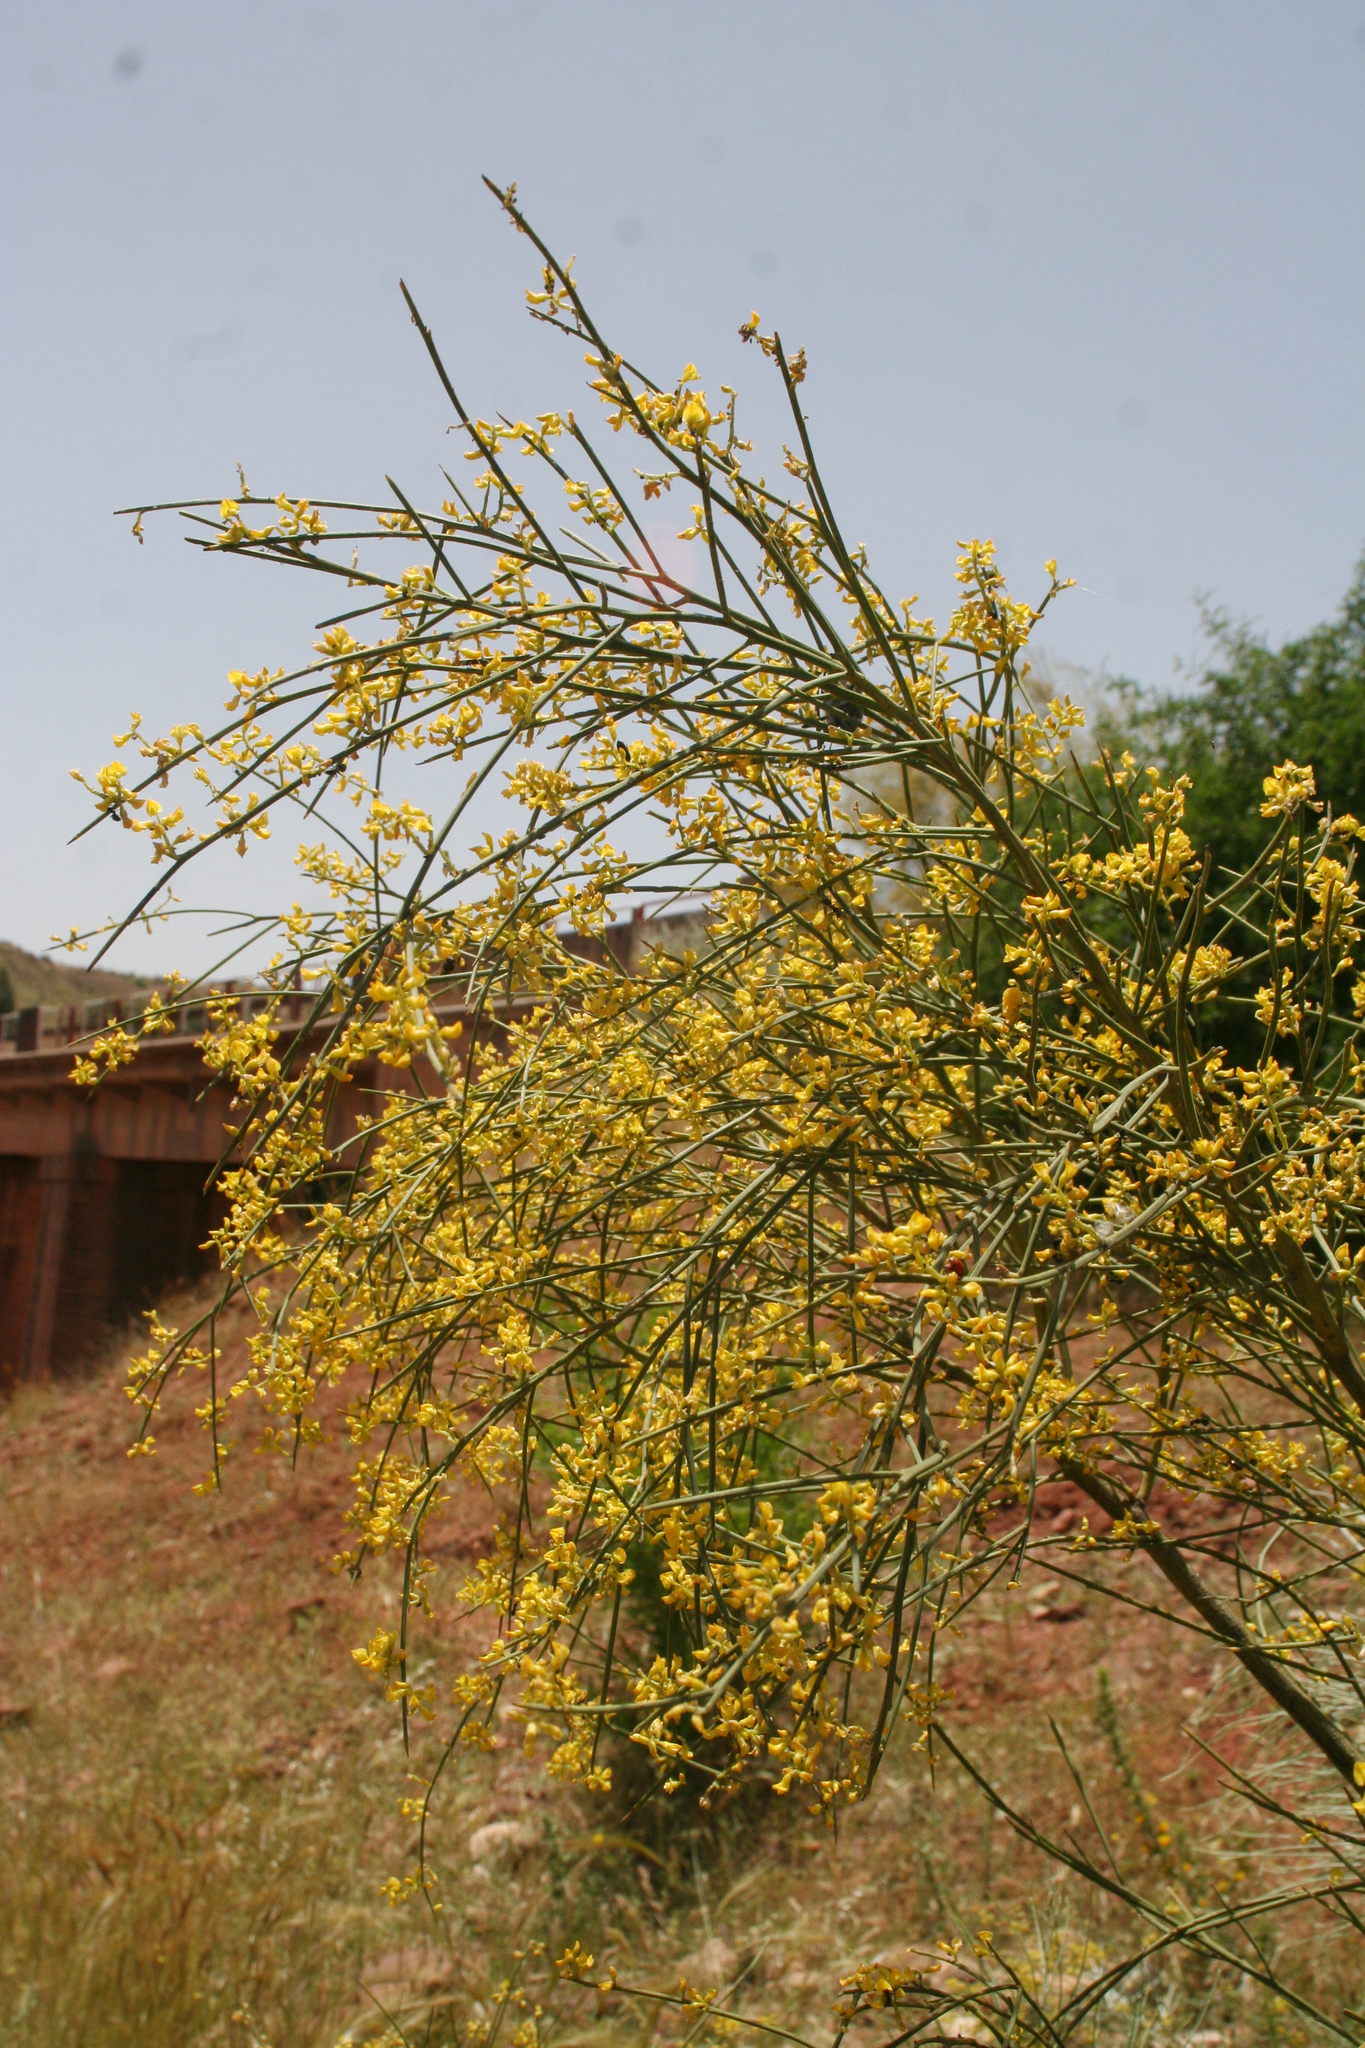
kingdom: Plantae
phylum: Tracheophyta
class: Magnoliopsida
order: Fabales
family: Fabaceae
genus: Retama
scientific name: Retama sphaerocarpa
